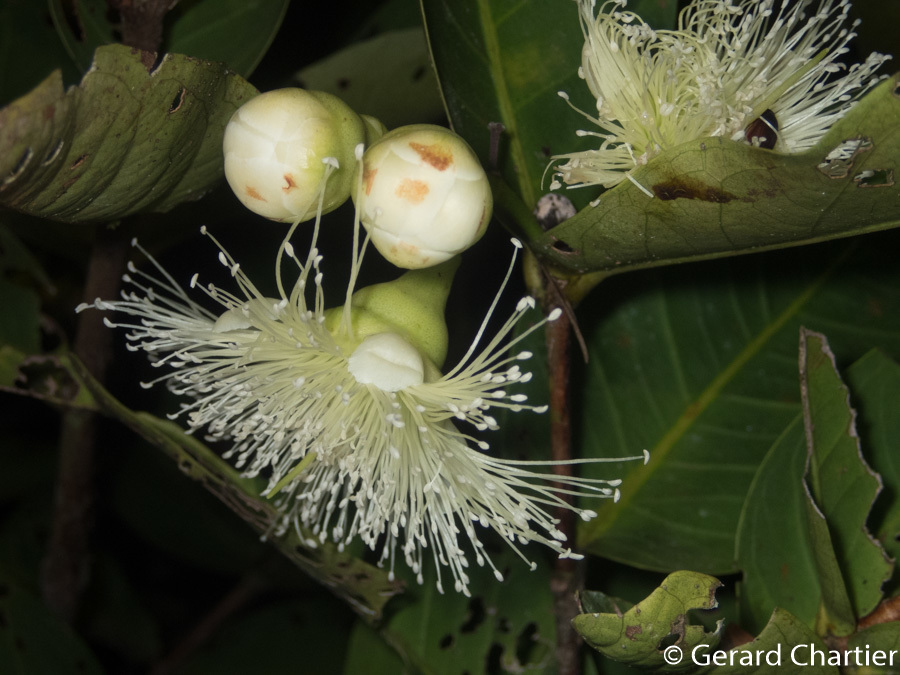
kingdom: Plantae
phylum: Tracheophyta
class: Magnoliopsida
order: Myrtales
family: Myrtaceae
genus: Syzygium
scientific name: Syzygium aqueum
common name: Water-apple
